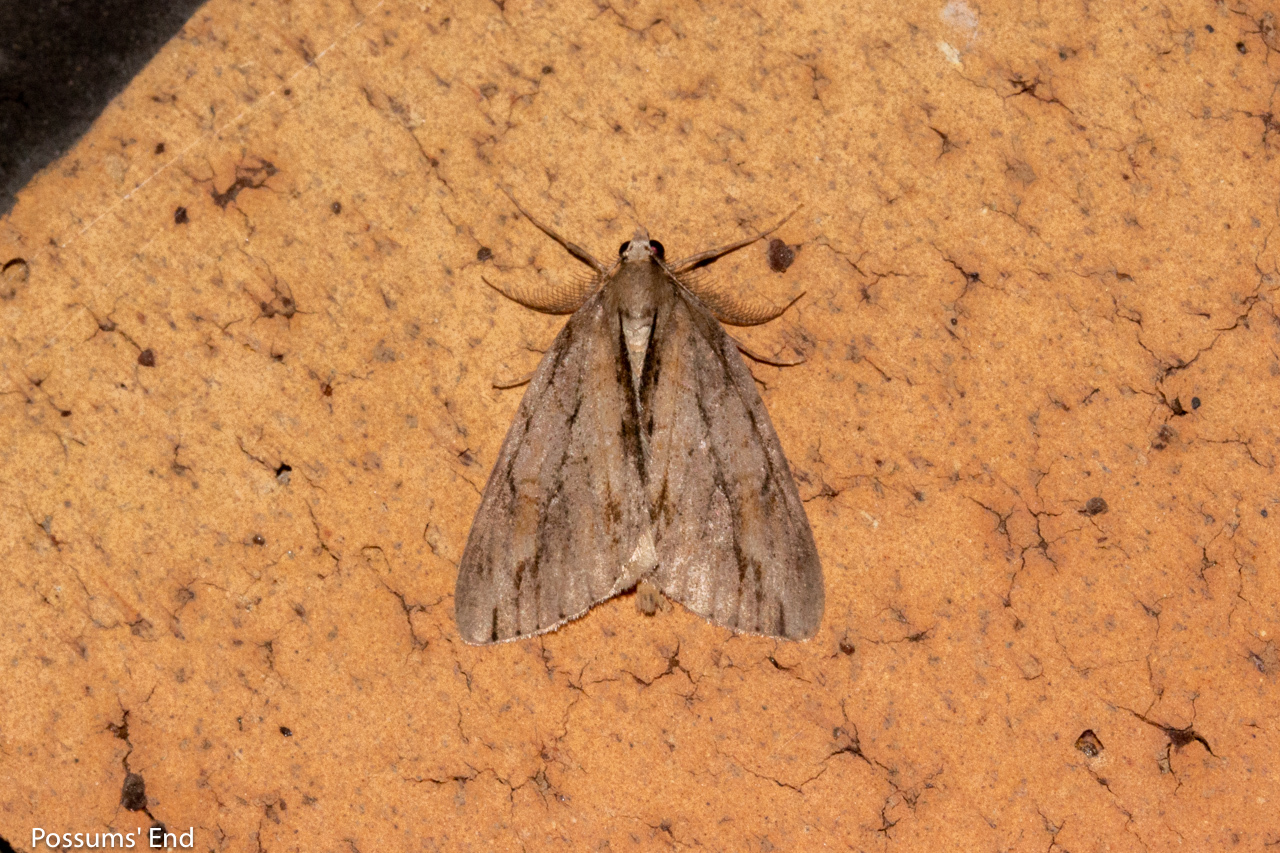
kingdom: Animalia
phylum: Arthropoda
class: Insecta
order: Lepidoptera
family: Geometridae
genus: Pseudocoremia
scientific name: Pseudocoremia lupinata
